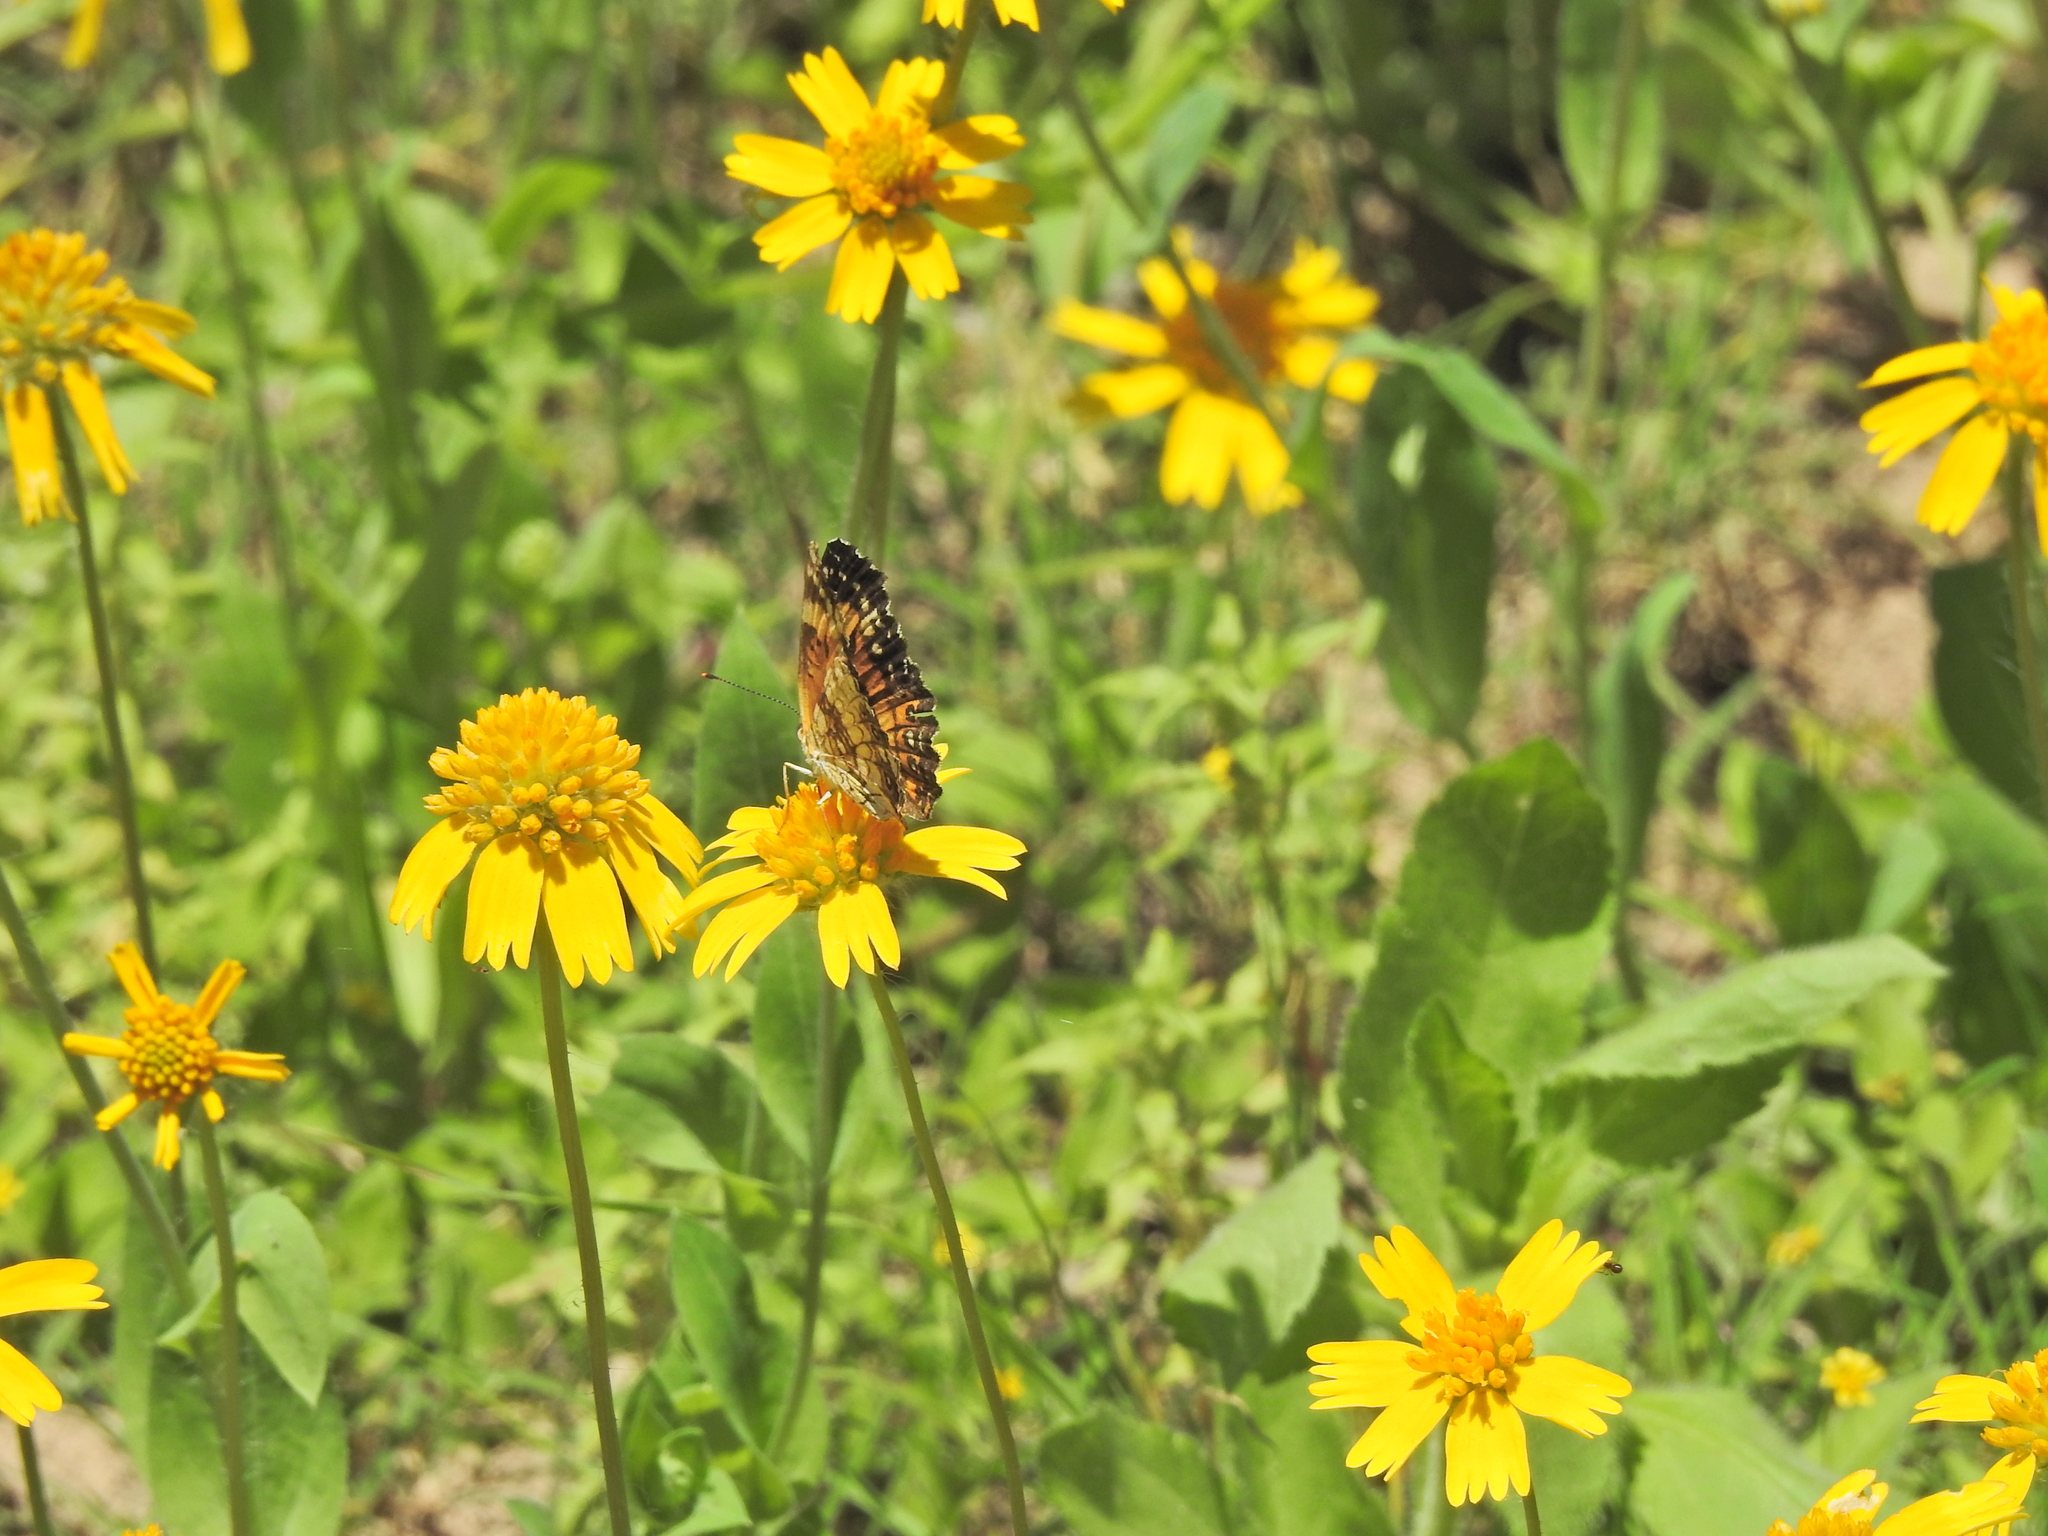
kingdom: Animalia
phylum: Arthropoda
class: Insecta
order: Lepidoptera
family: Nymphalidae
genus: Chlosyne
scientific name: Chlosyne nycteis
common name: Silvery checkerspot
